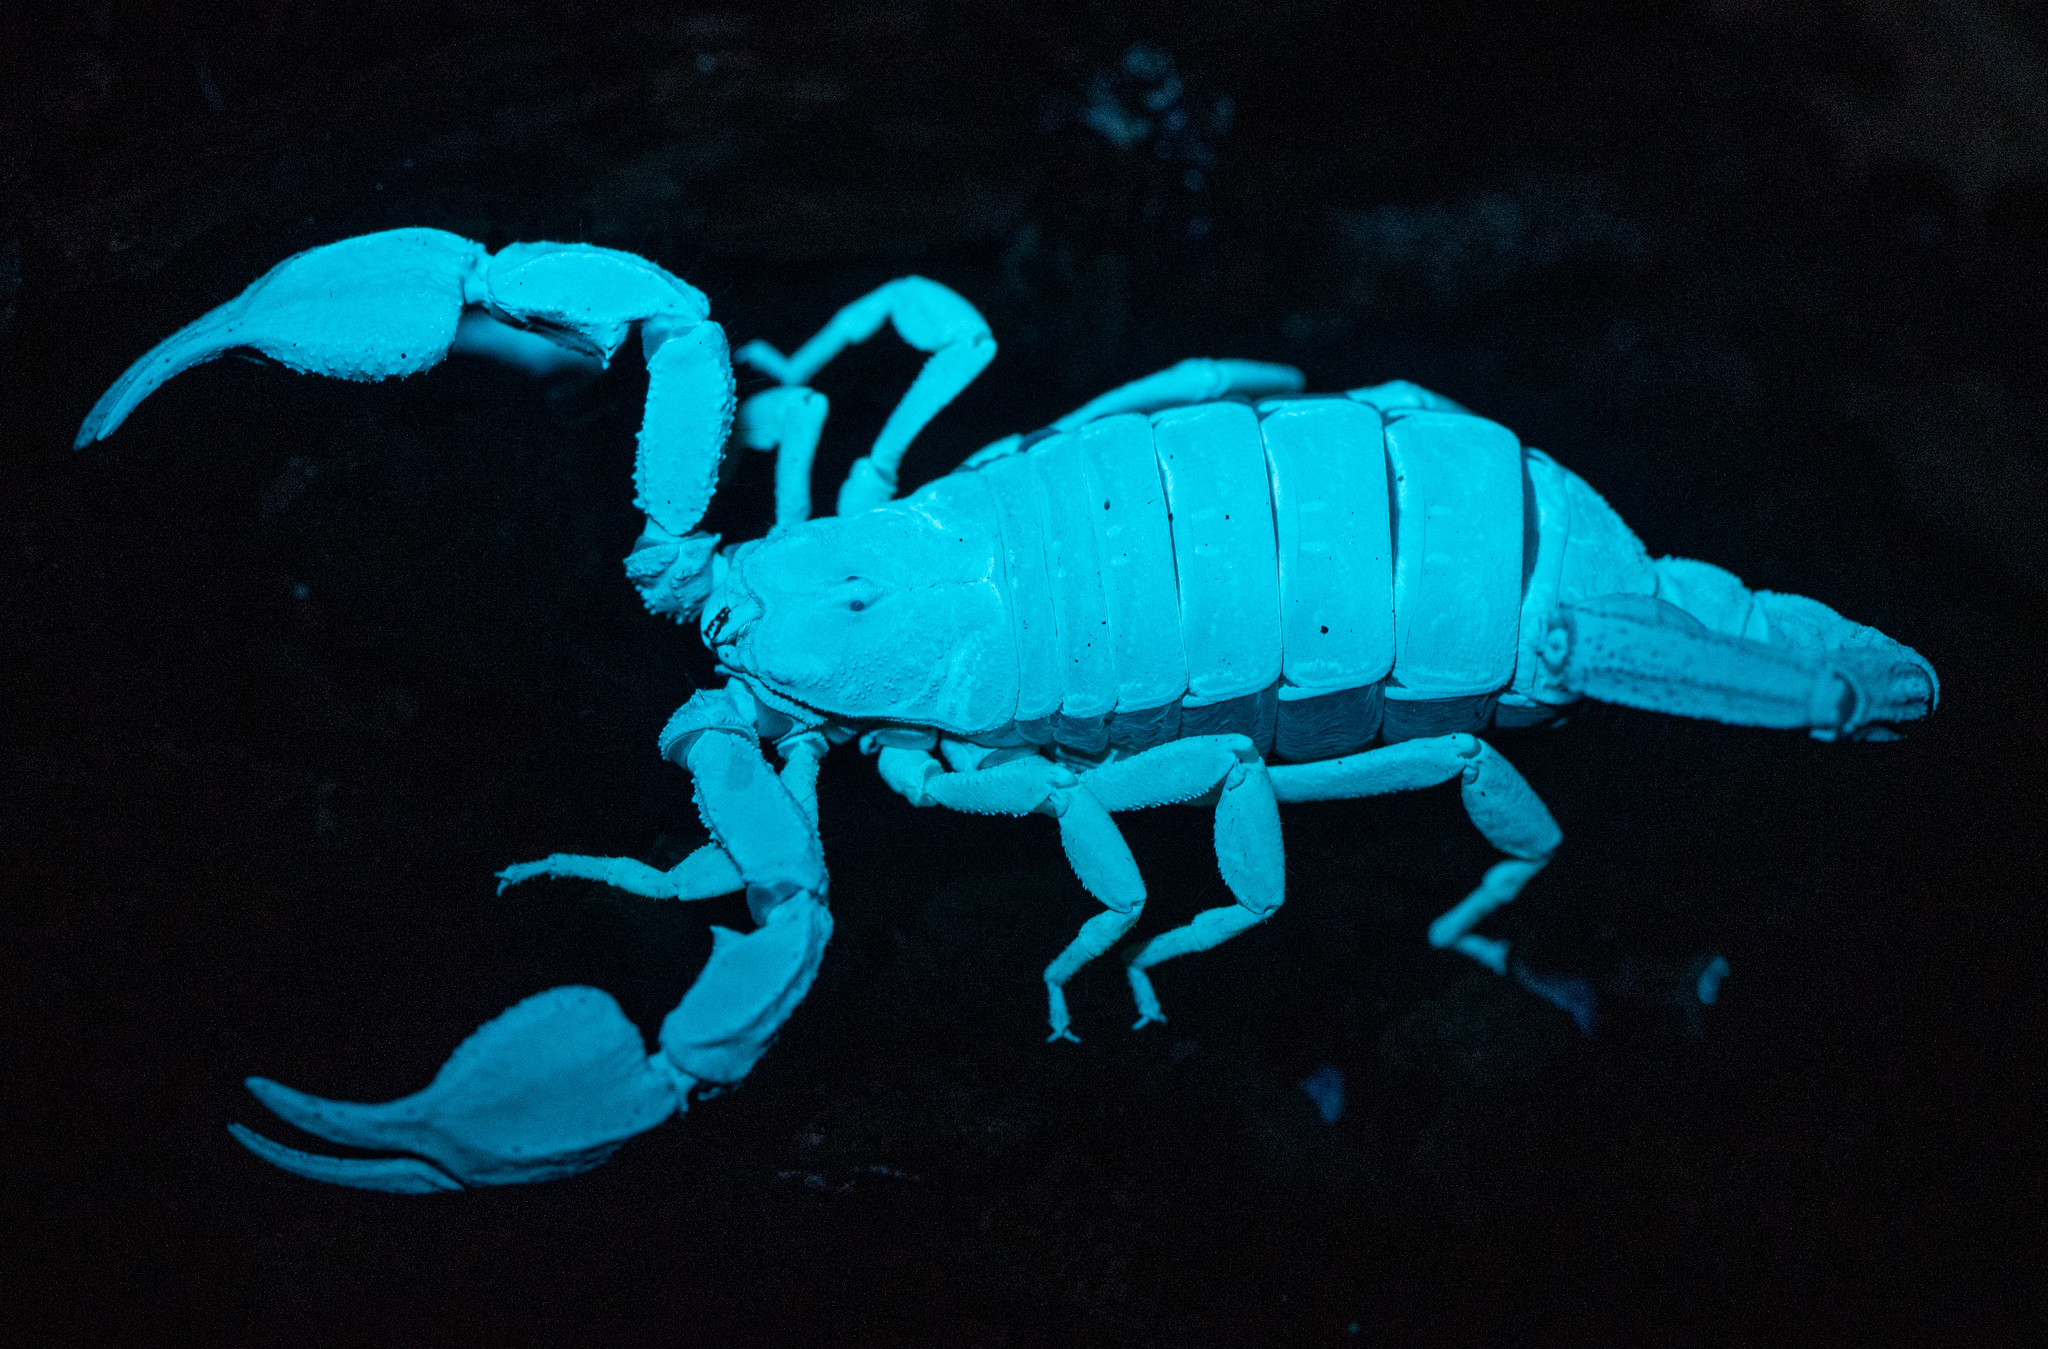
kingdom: Animalia
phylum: Arthropoda
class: Arachnida
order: Scorpiones
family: Chactidae
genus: Uroctonus
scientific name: Uroctonus mordax
